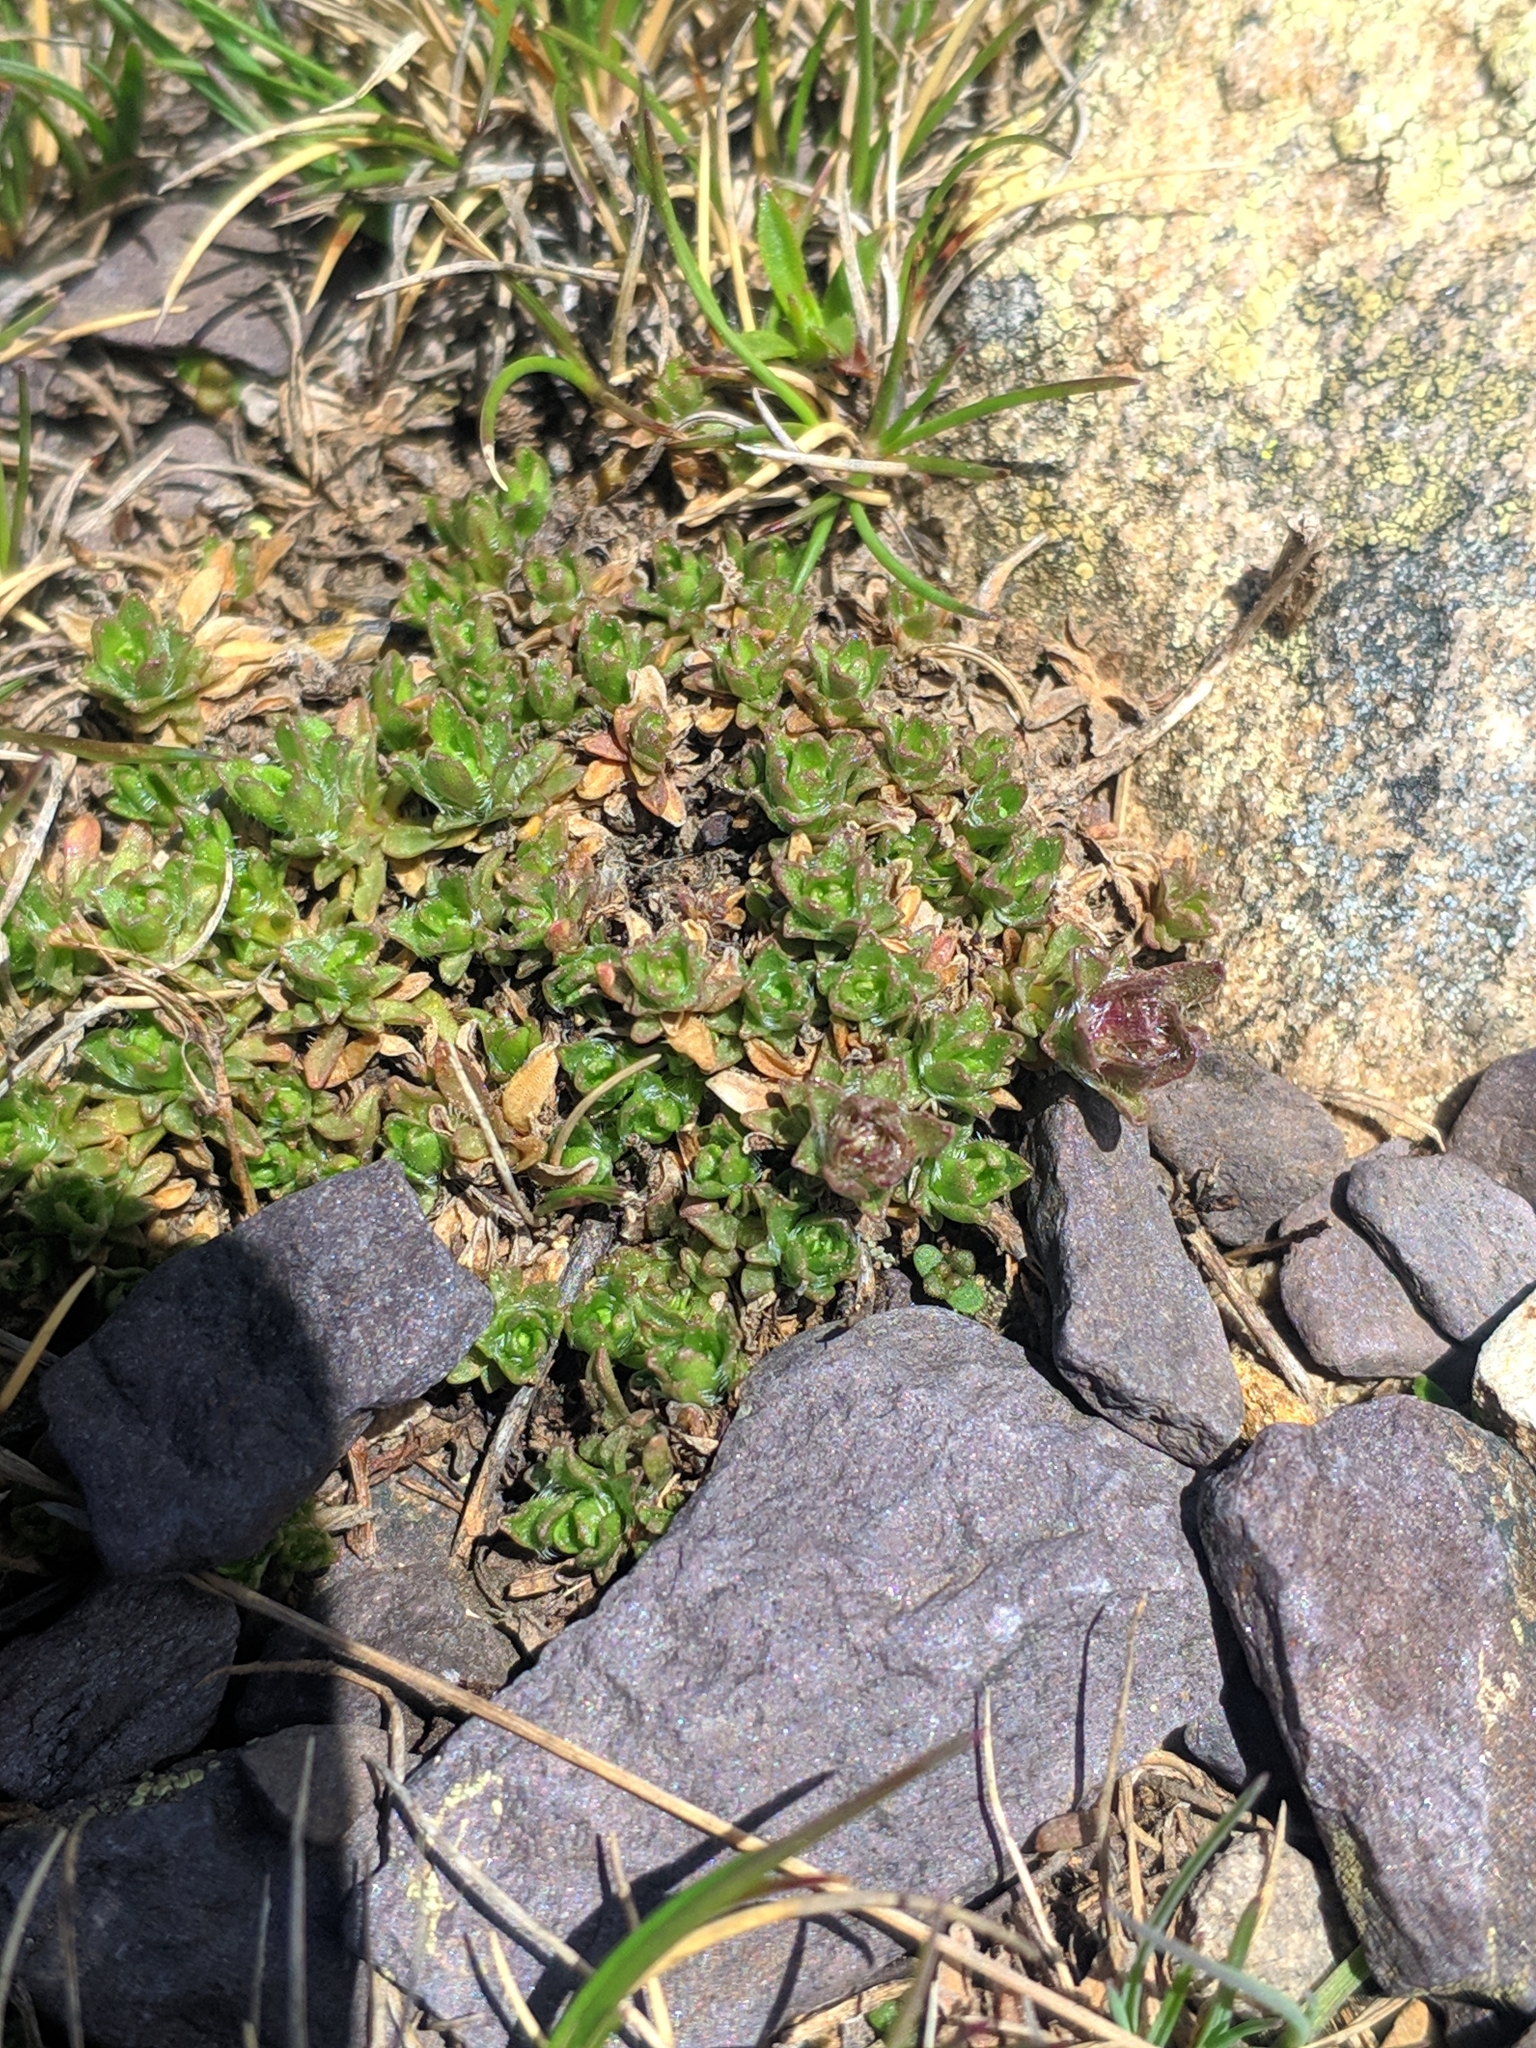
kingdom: Plantae
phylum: Tracheophyta
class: Magnoliopsida
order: Asterales
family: Campanulaceae
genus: Jasione
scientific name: Jasione crispa
